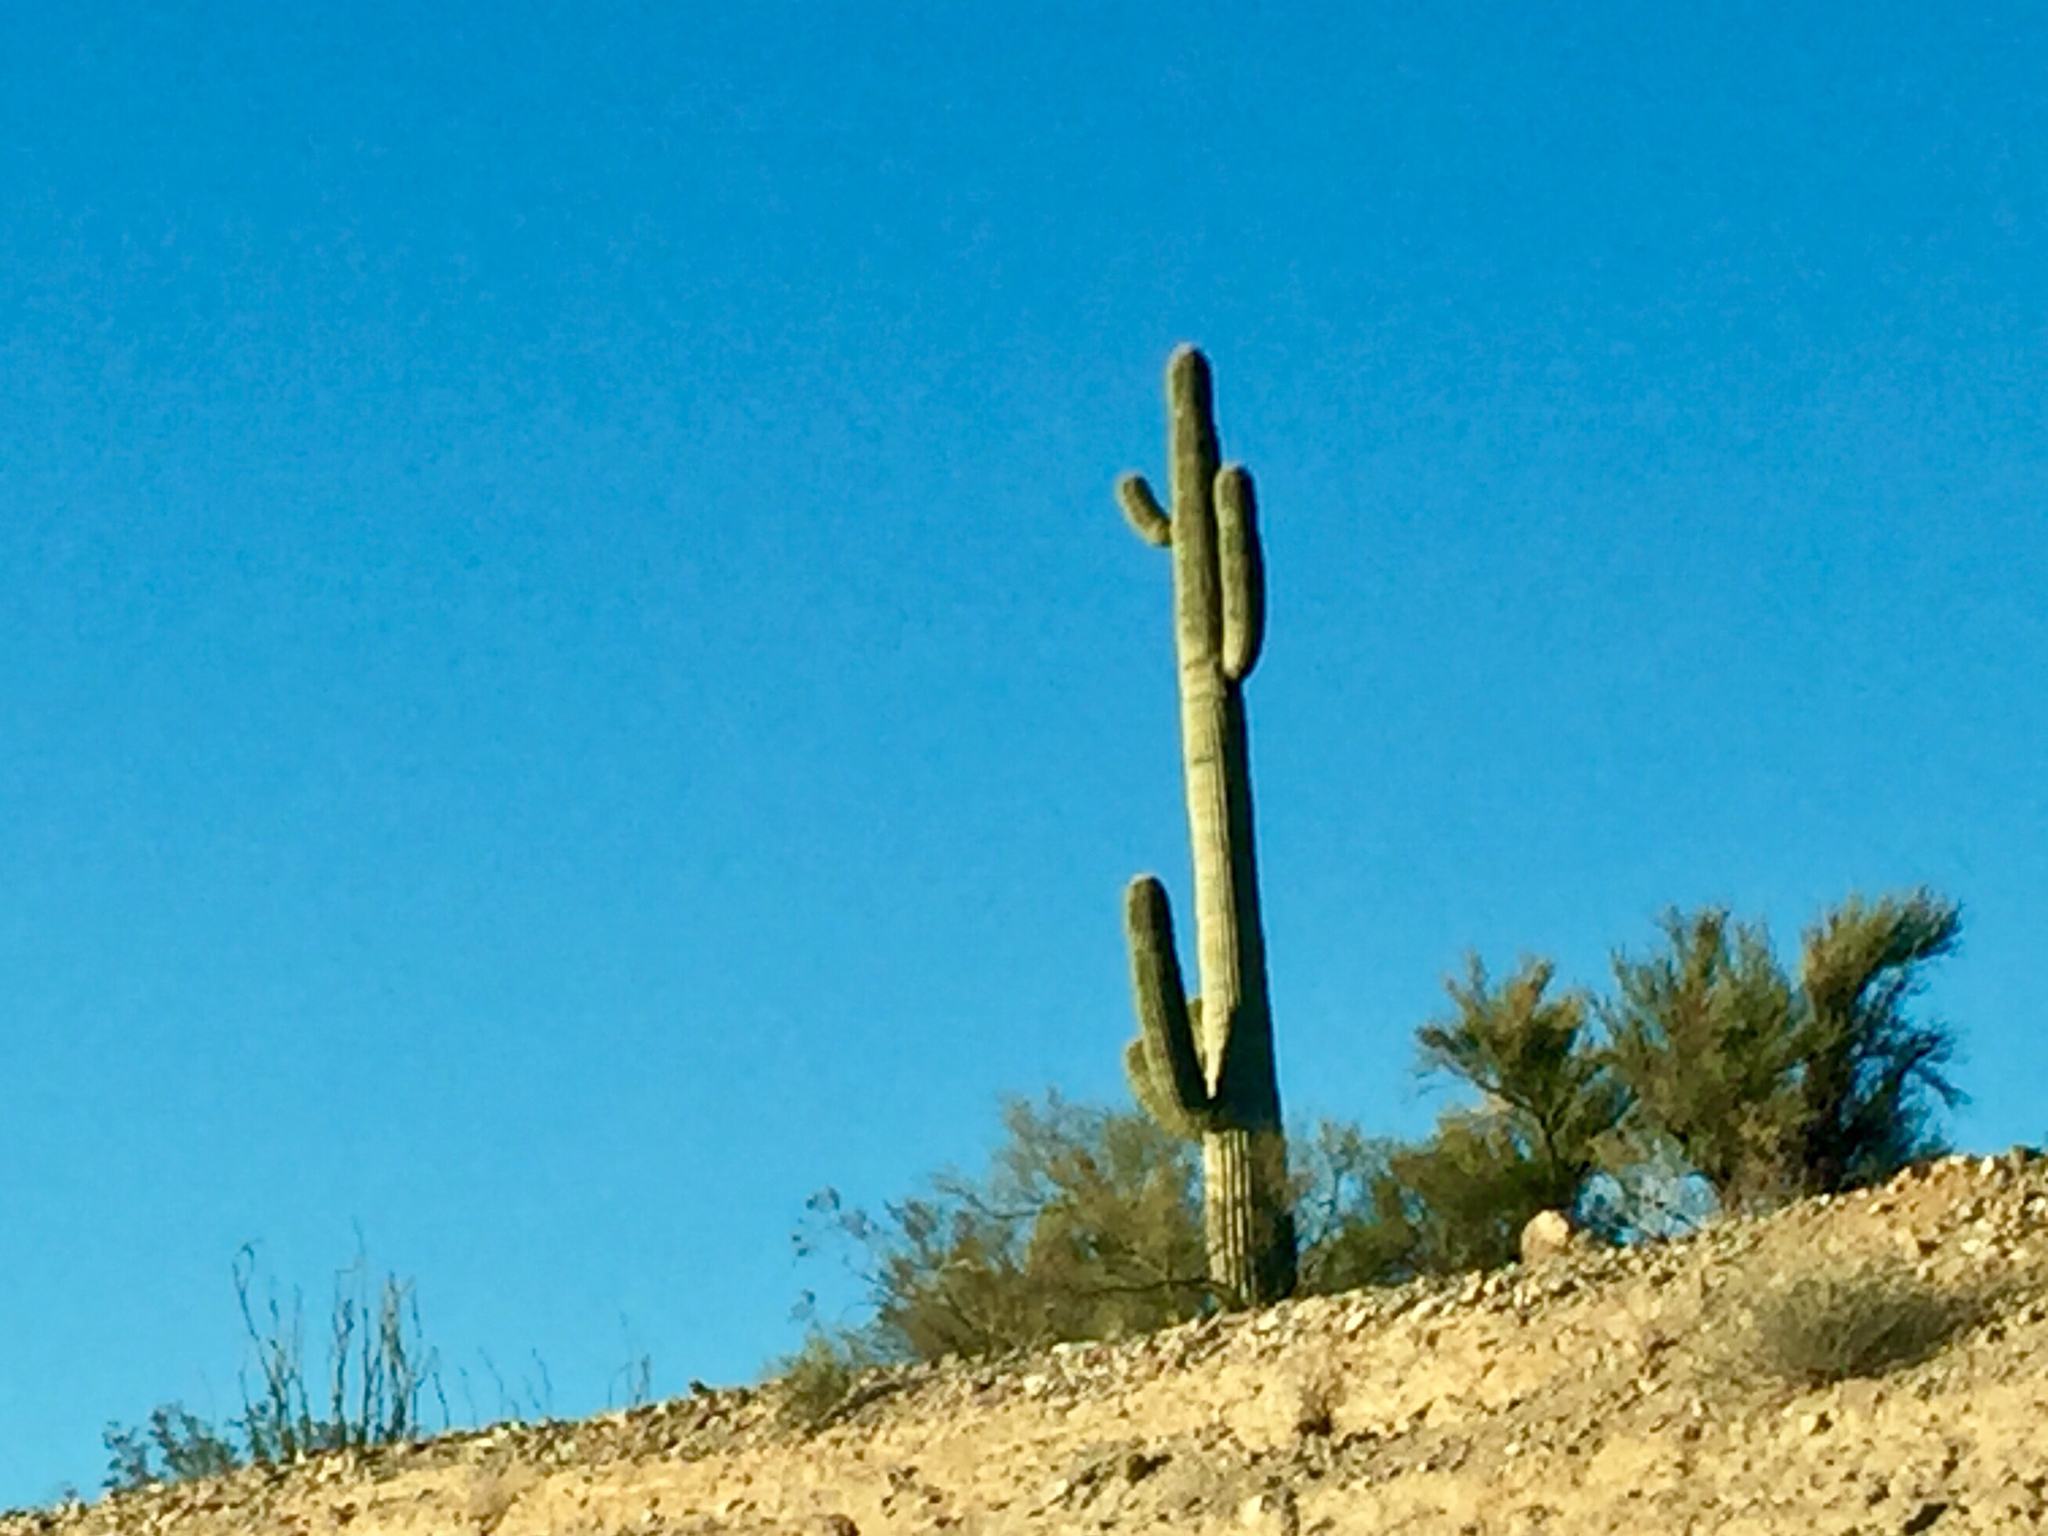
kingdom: Plantae
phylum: Tracheophyta
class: Magnoliopsida
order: Caryophyllales
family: Cactaceae
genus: Carnegiea
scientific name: Carnegiea gigantea
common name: Saguaro
